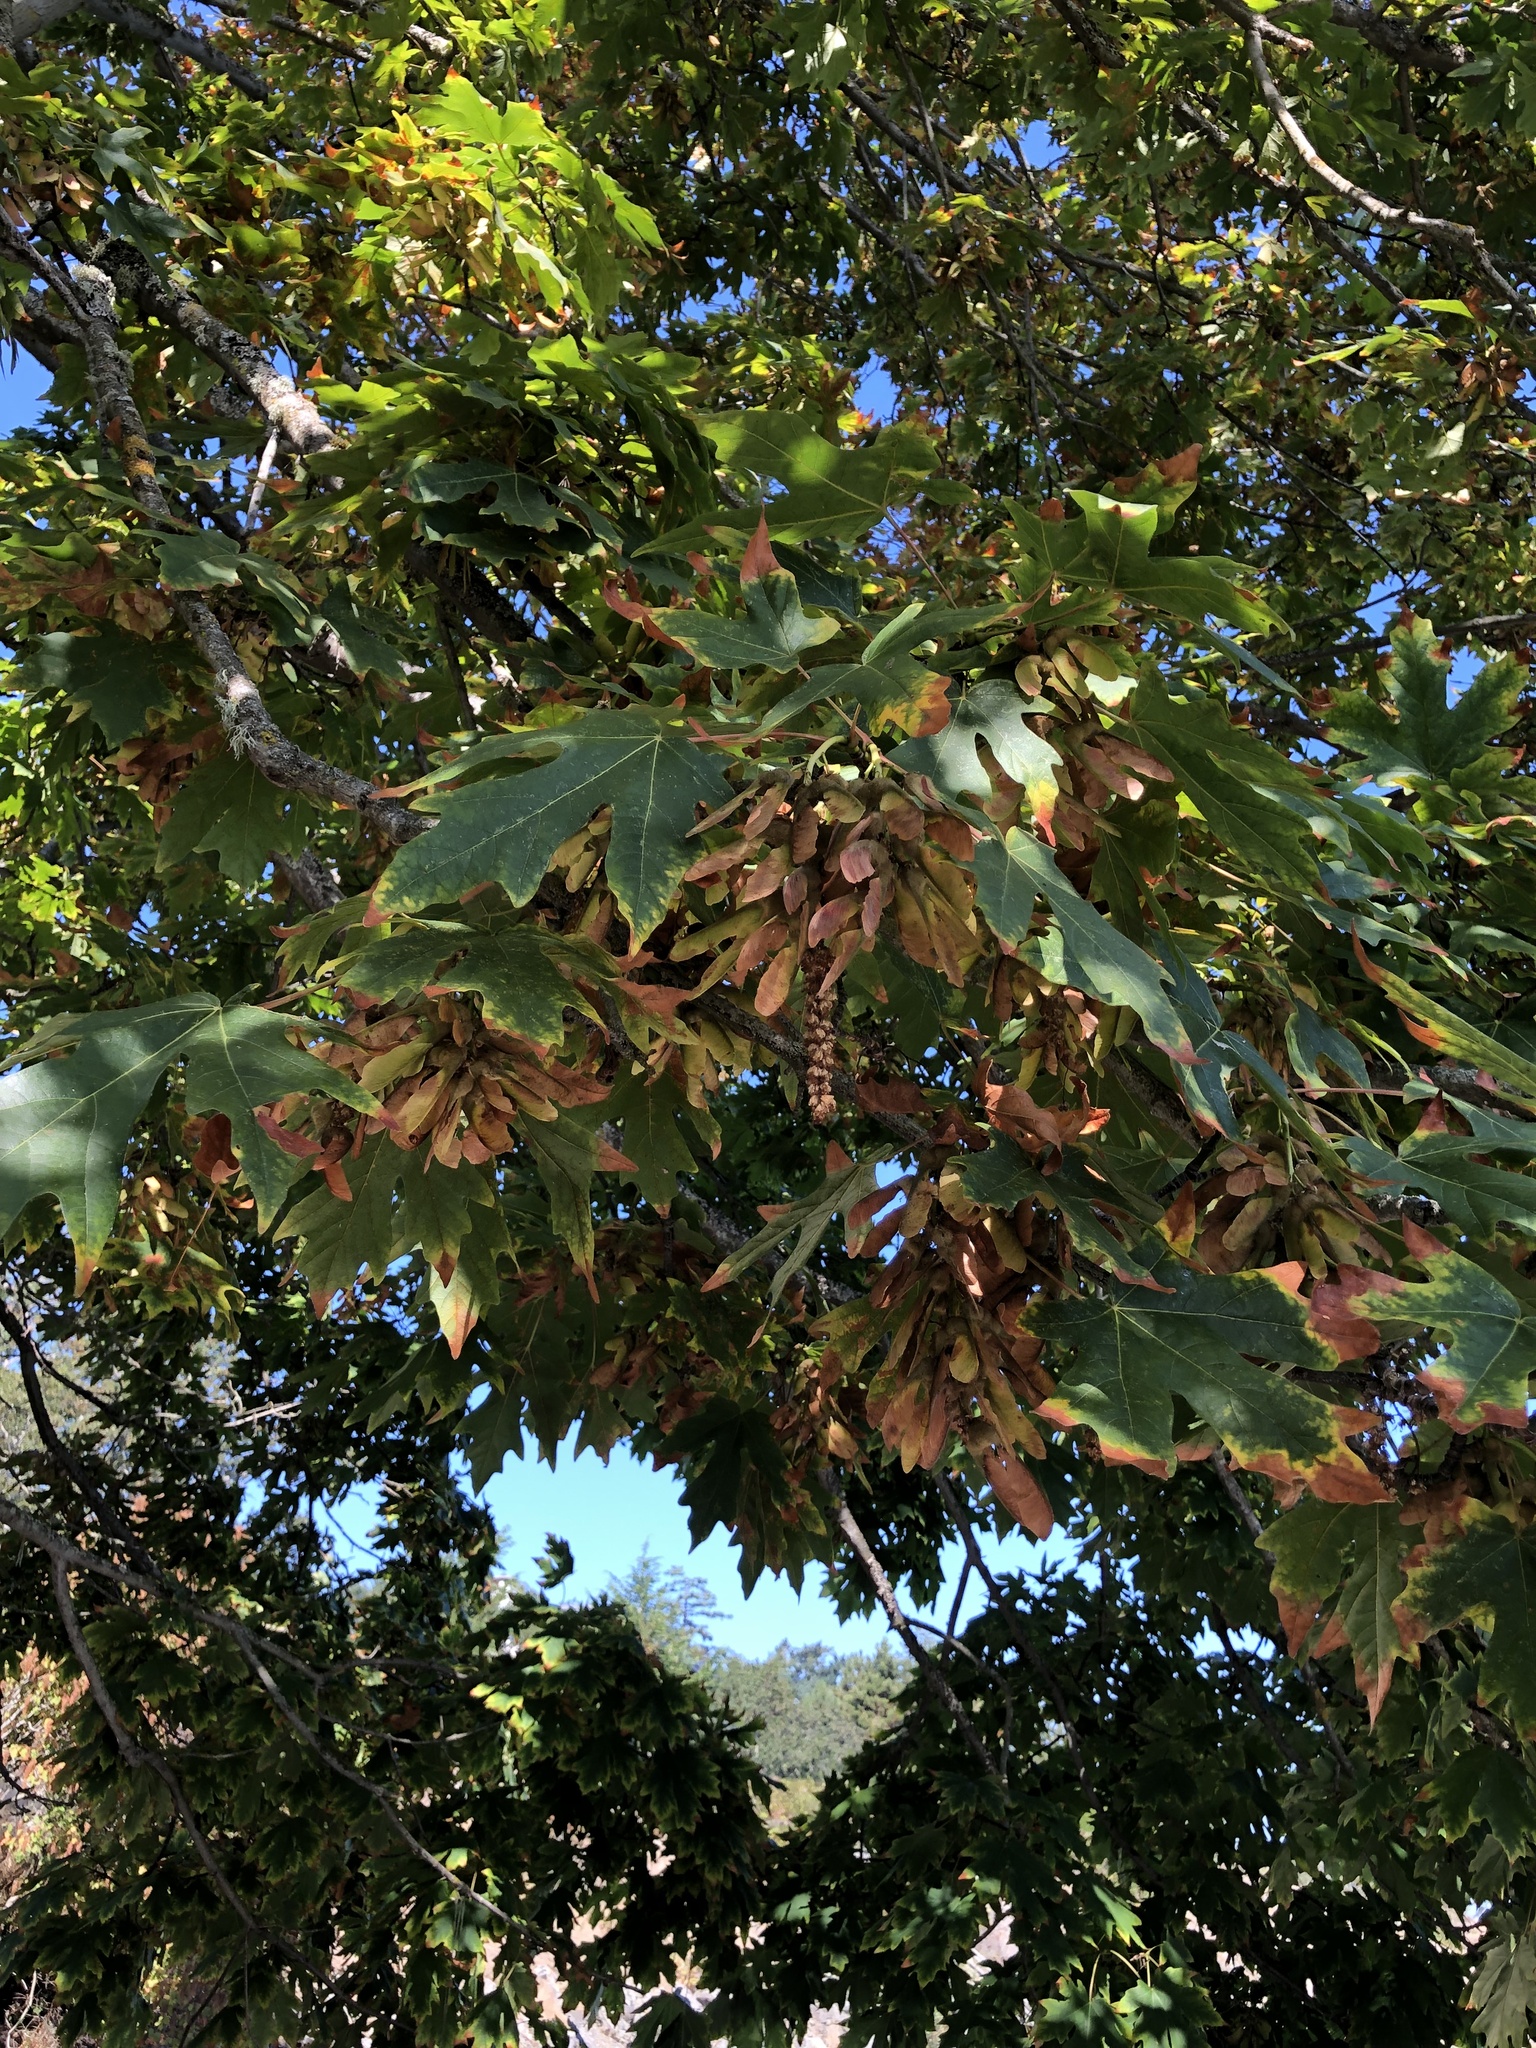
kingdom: Plantae
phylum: Tracheophyta
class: Magnoliopsida
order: Sapindales
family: Sapindaceae
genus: Acer
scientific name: Acer macrophyllum
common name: Oregon maple
